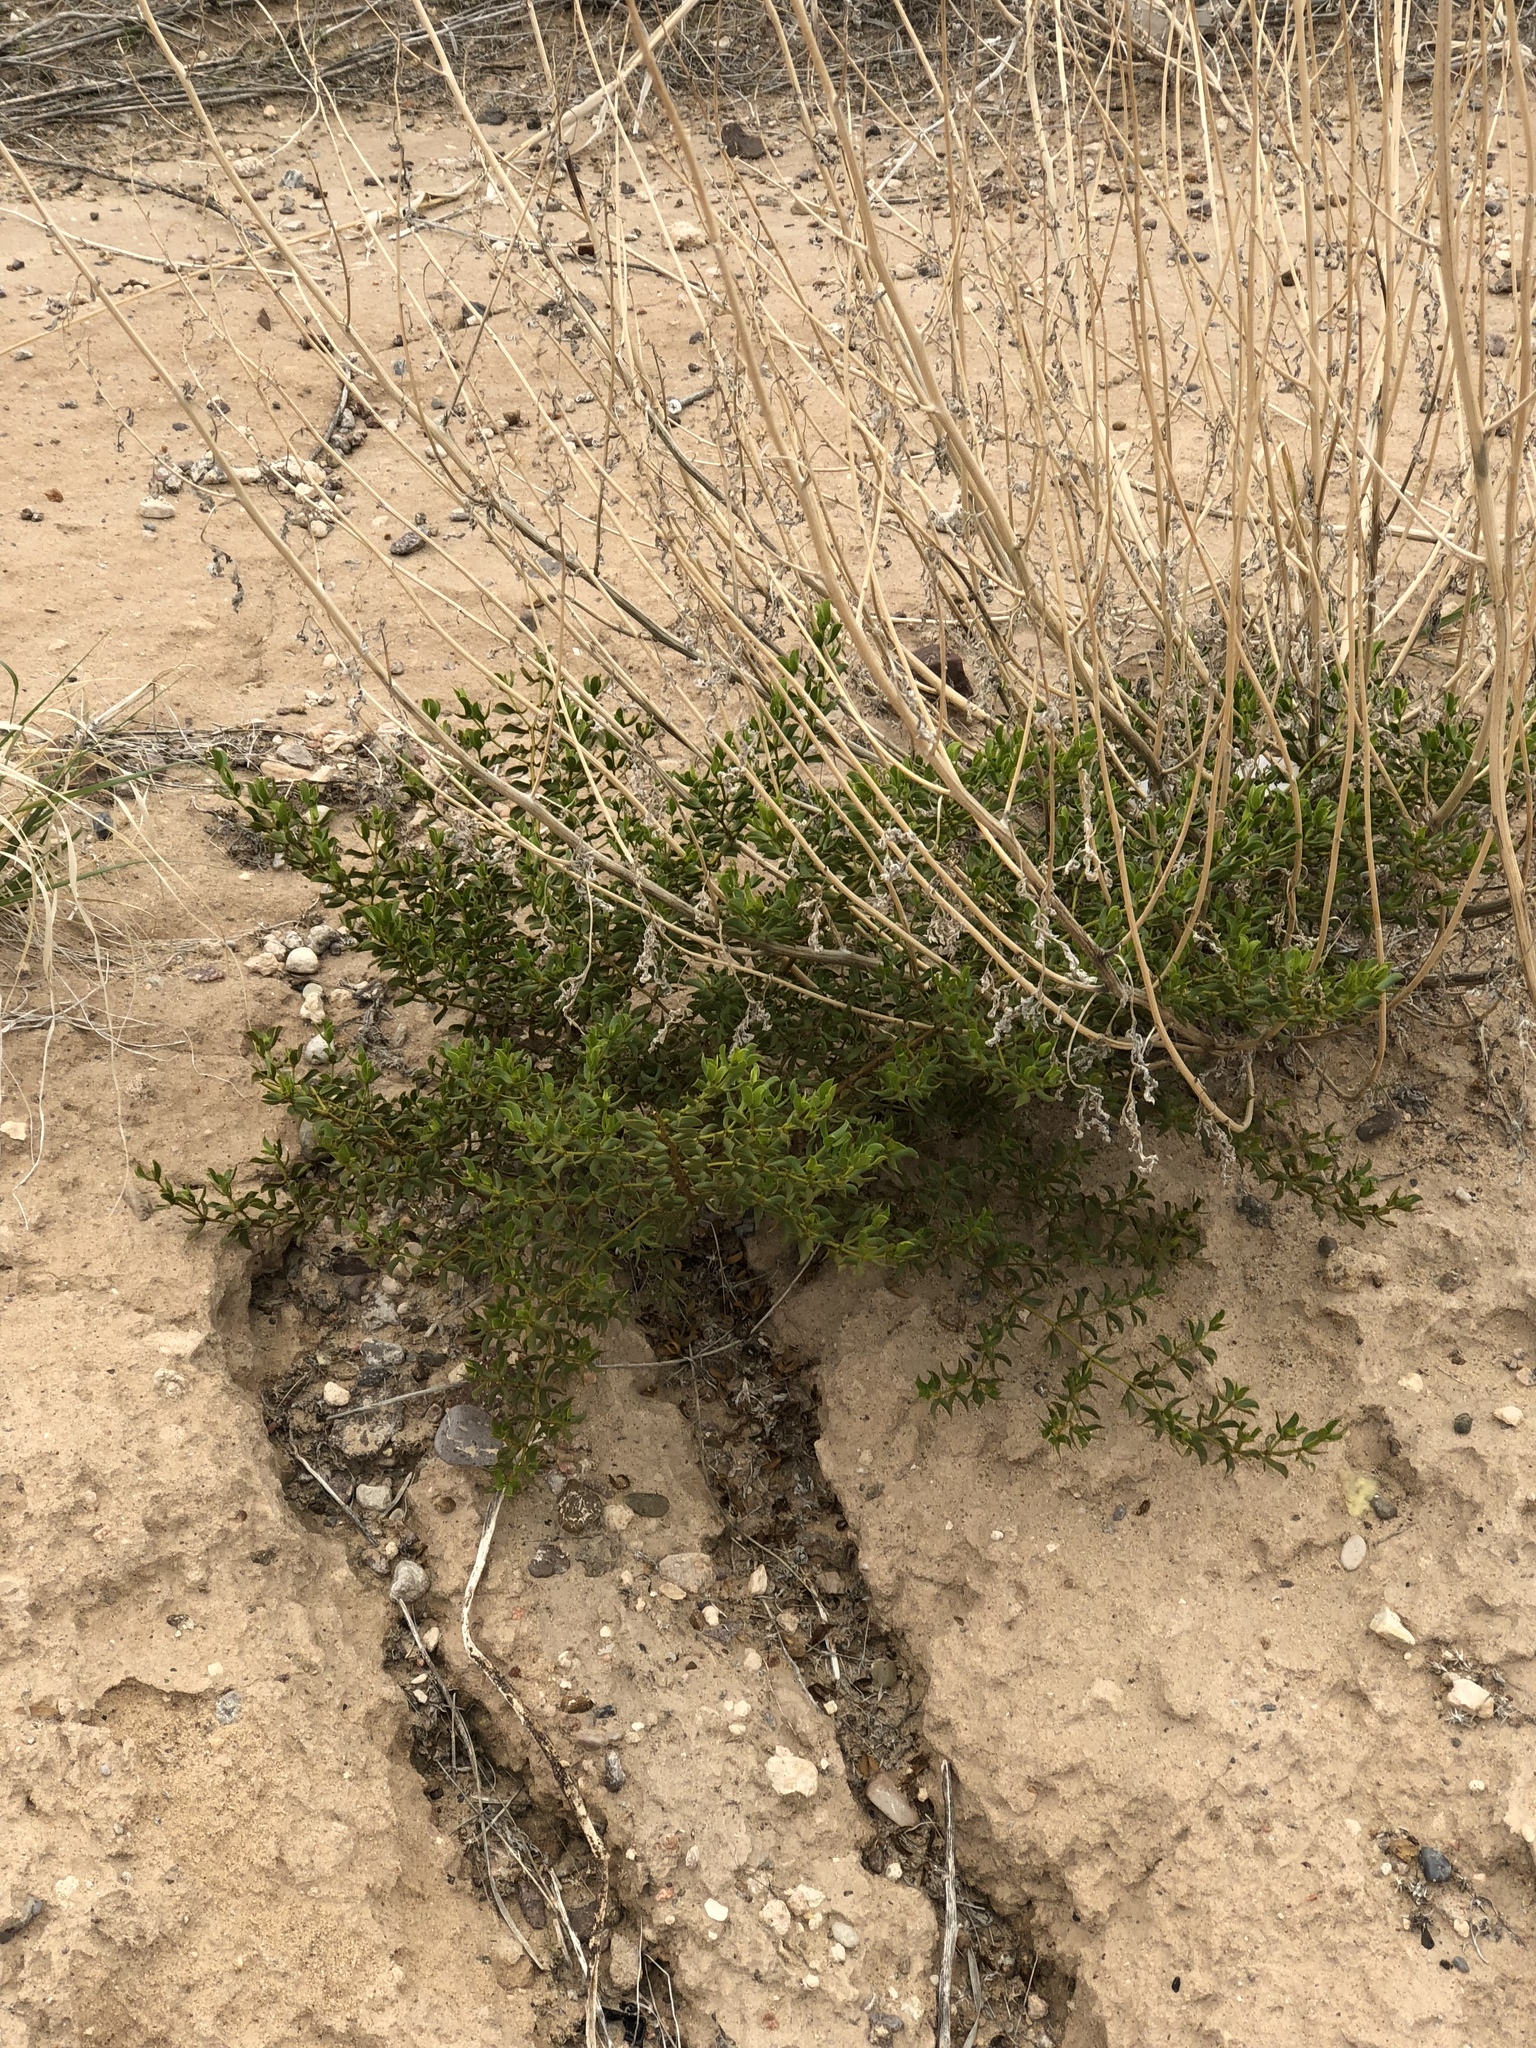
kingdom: Plantae
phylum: Tracheophyta
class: Magnoliopsida
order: Zygophyllales
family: Zygophyllaceae
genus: Larrea
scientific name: Larrea tridentata
